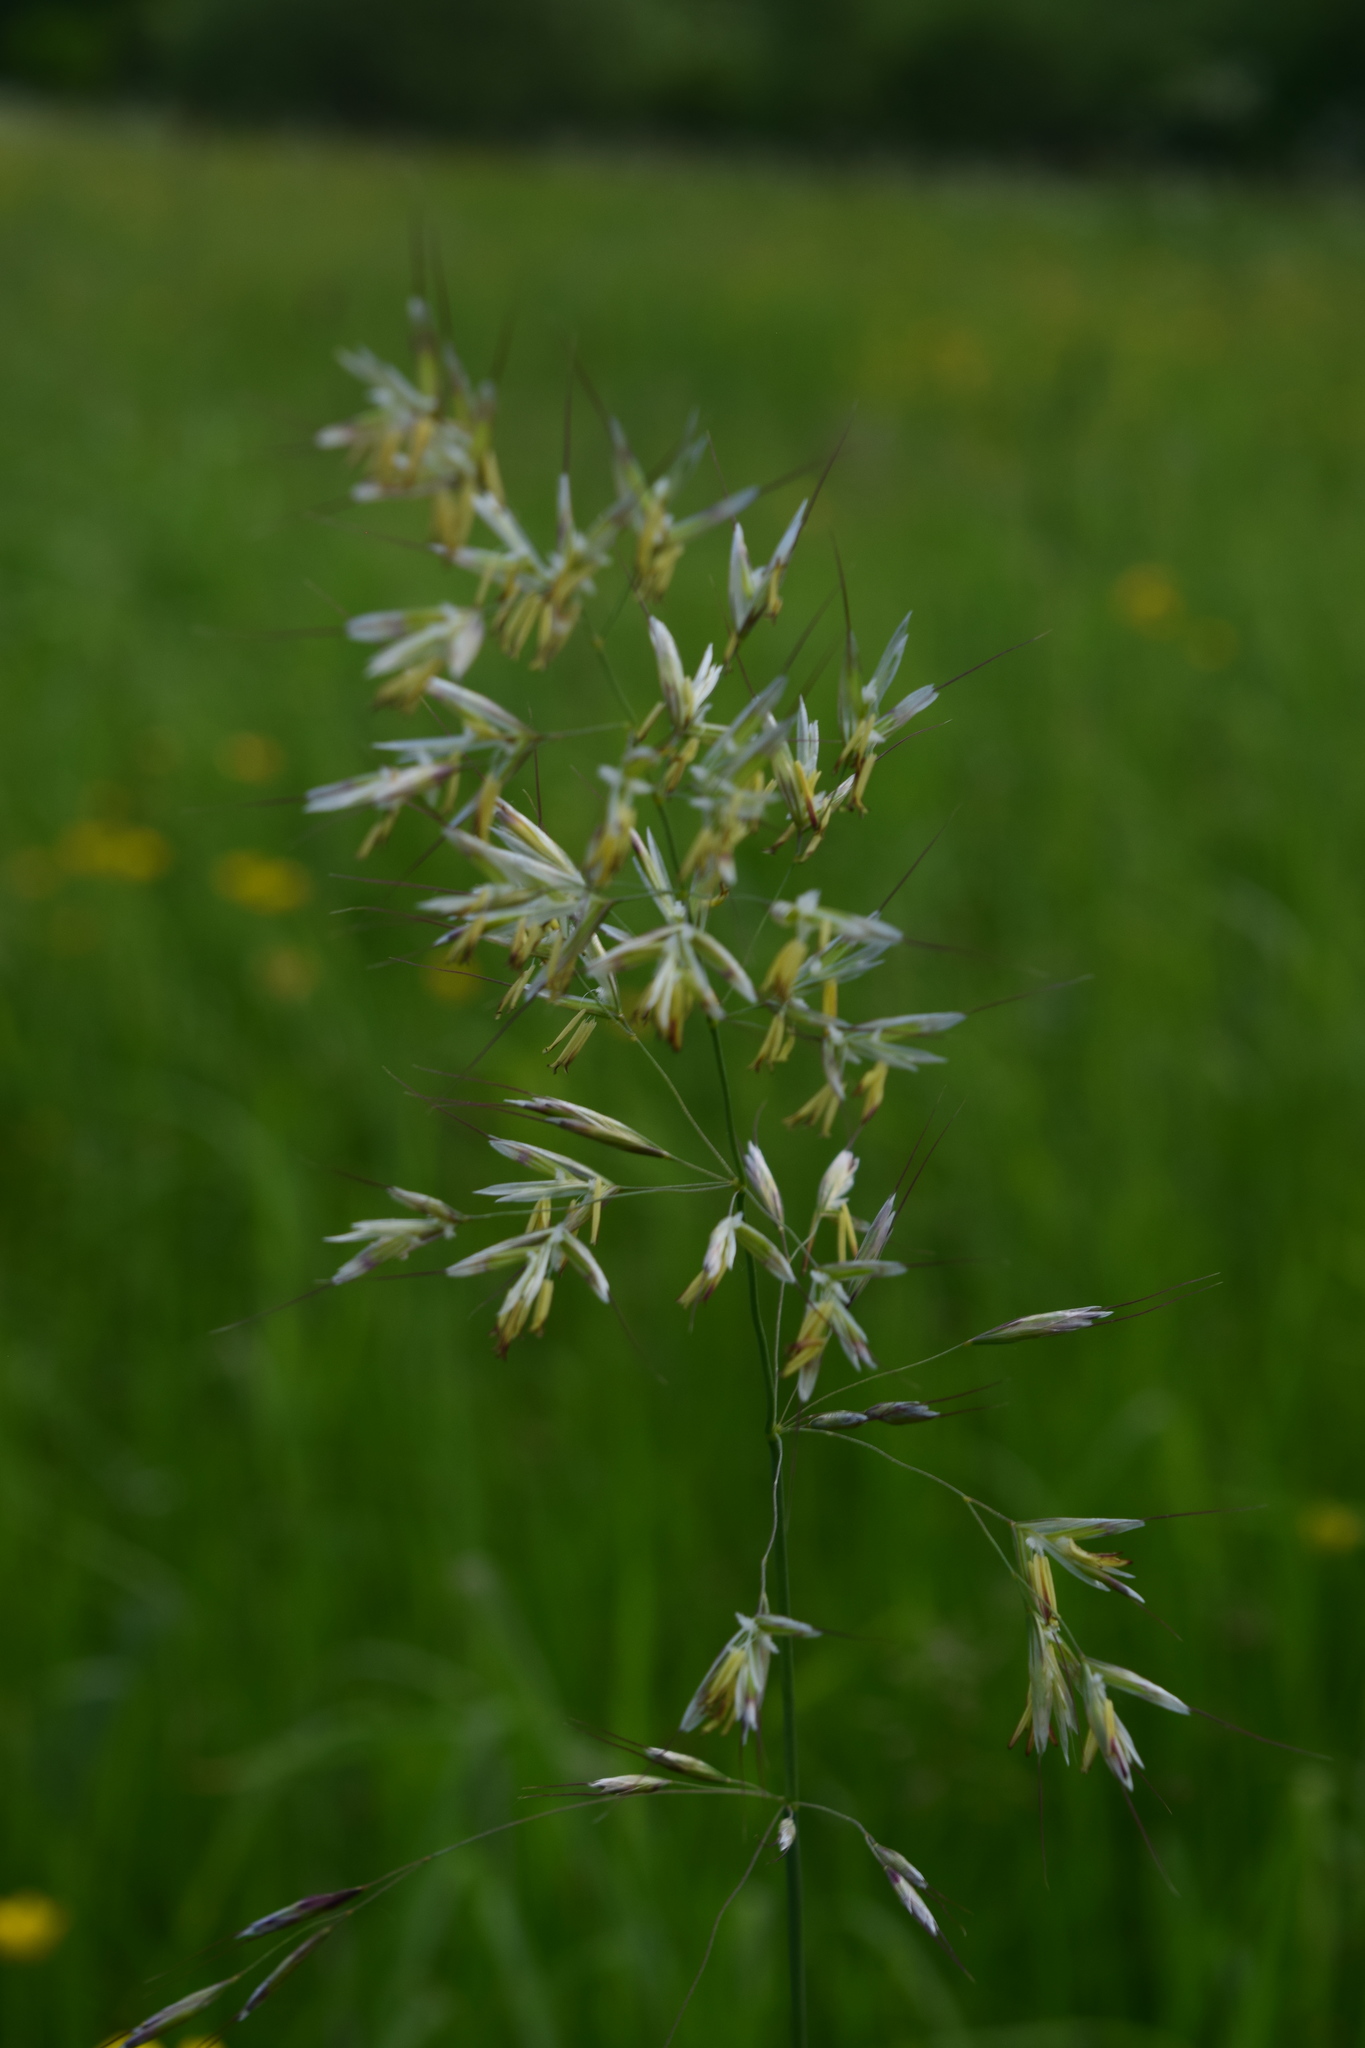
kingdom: Plantae
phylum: Tracheophyta
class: Liliopsida
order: Poales
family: Poaceae
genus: Avenula
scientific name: Avenula pubescens
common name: Downy alpine oatgrass
